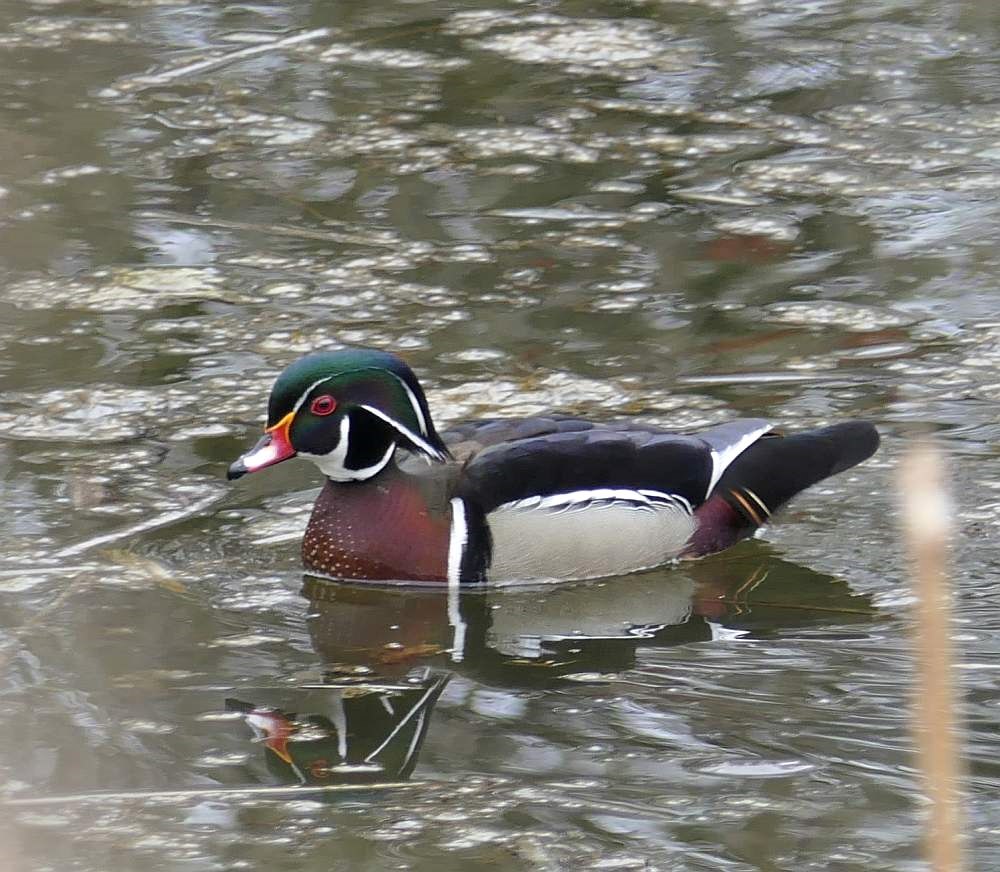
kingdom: Animalia
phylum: Chordata
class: Aves
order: Anseriformes
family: Anatidae
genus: Aix
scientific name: Aix sponsa
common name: Wood duck
